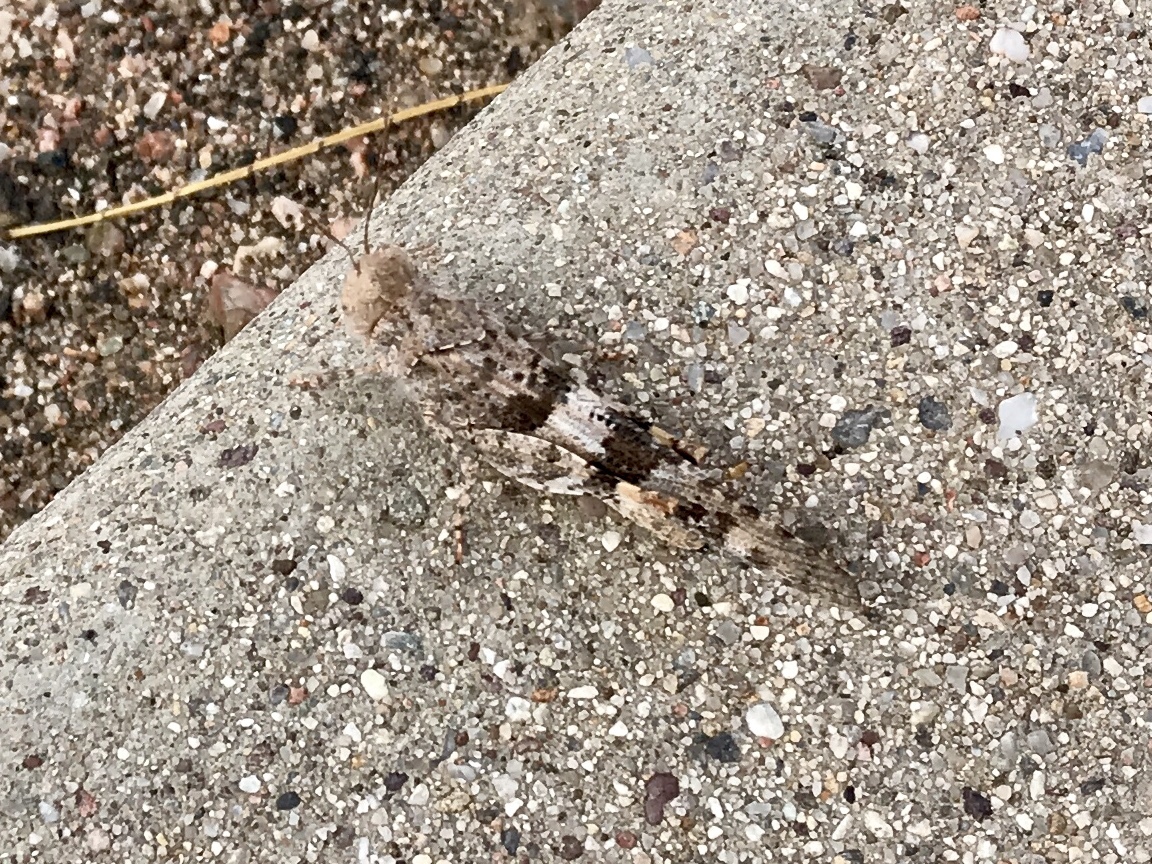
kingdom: Animalia
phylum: Arthropoda
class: Insecta
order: Orthoptera
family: Acrididae
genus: Trimerotropis
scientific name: Trimerotropis pallidipennis
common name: Pallid-winged grasshopper
